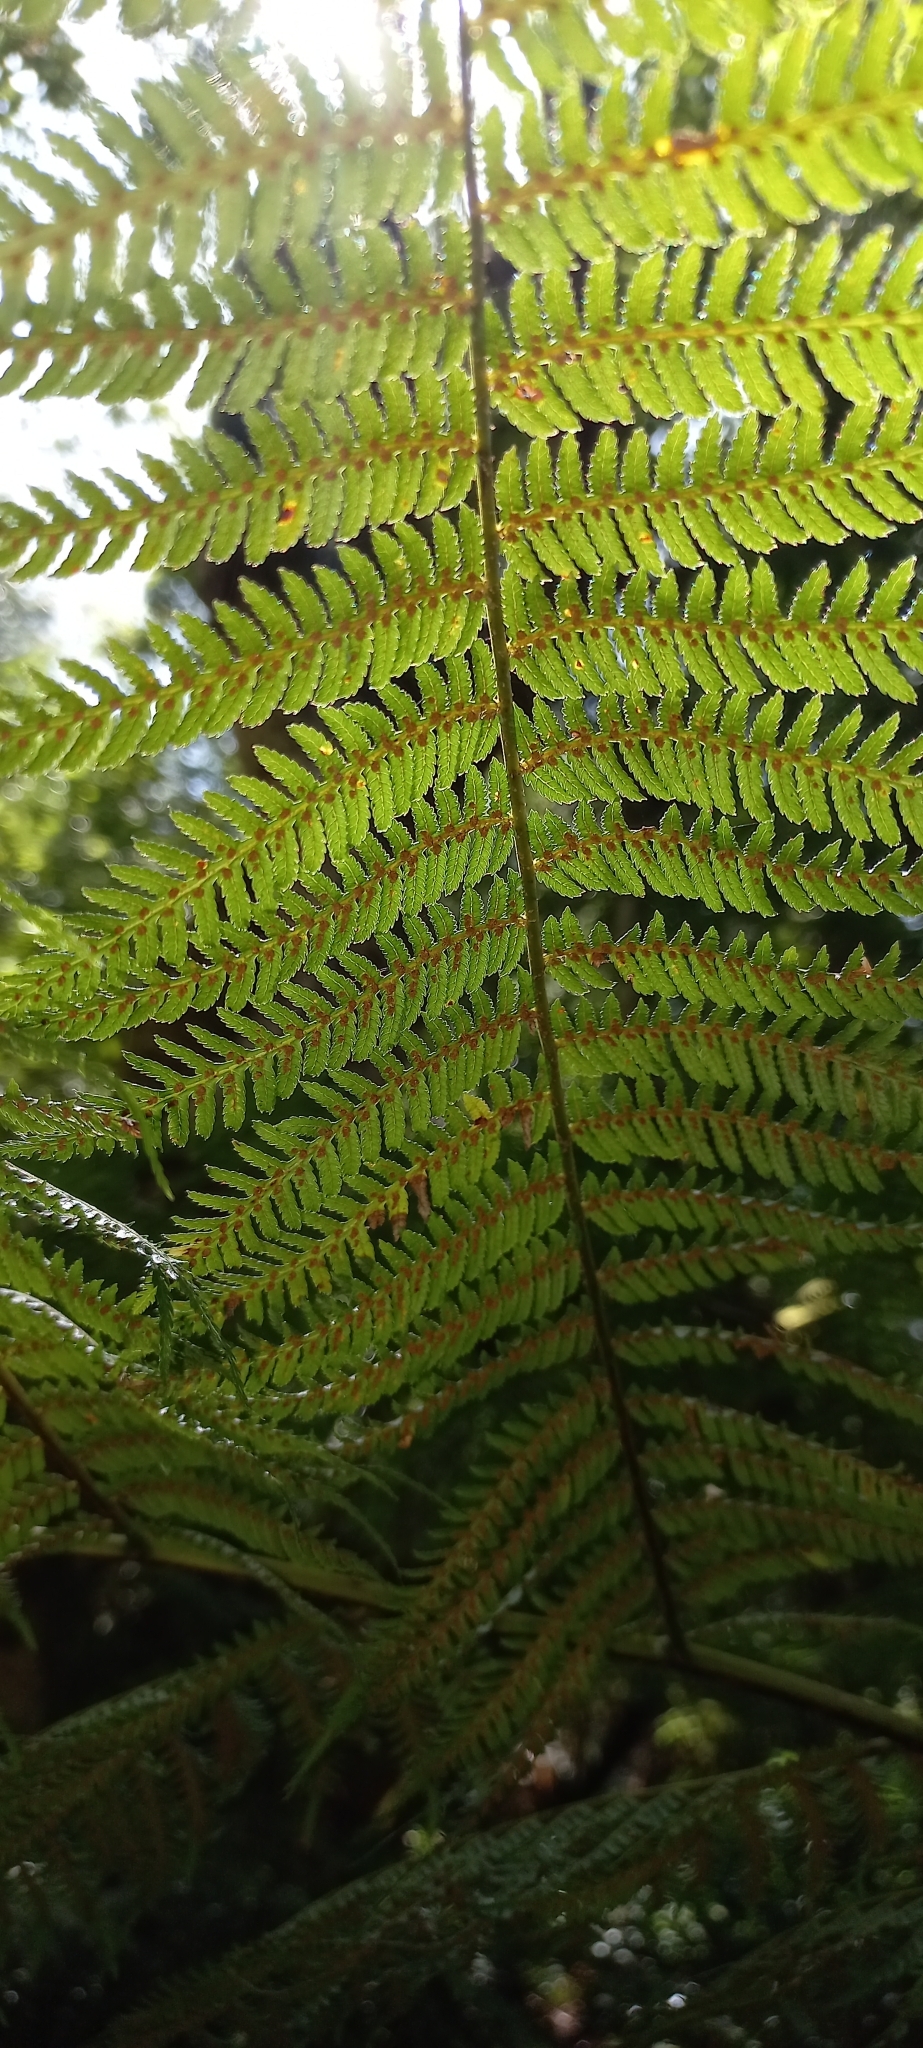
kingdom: Plantae
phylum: Tracheophyta
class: Polypodiopsida
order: Cyatheales
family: Cyatheaceae
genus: Gymnosphaera
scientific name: Gymnosphaera capensis
